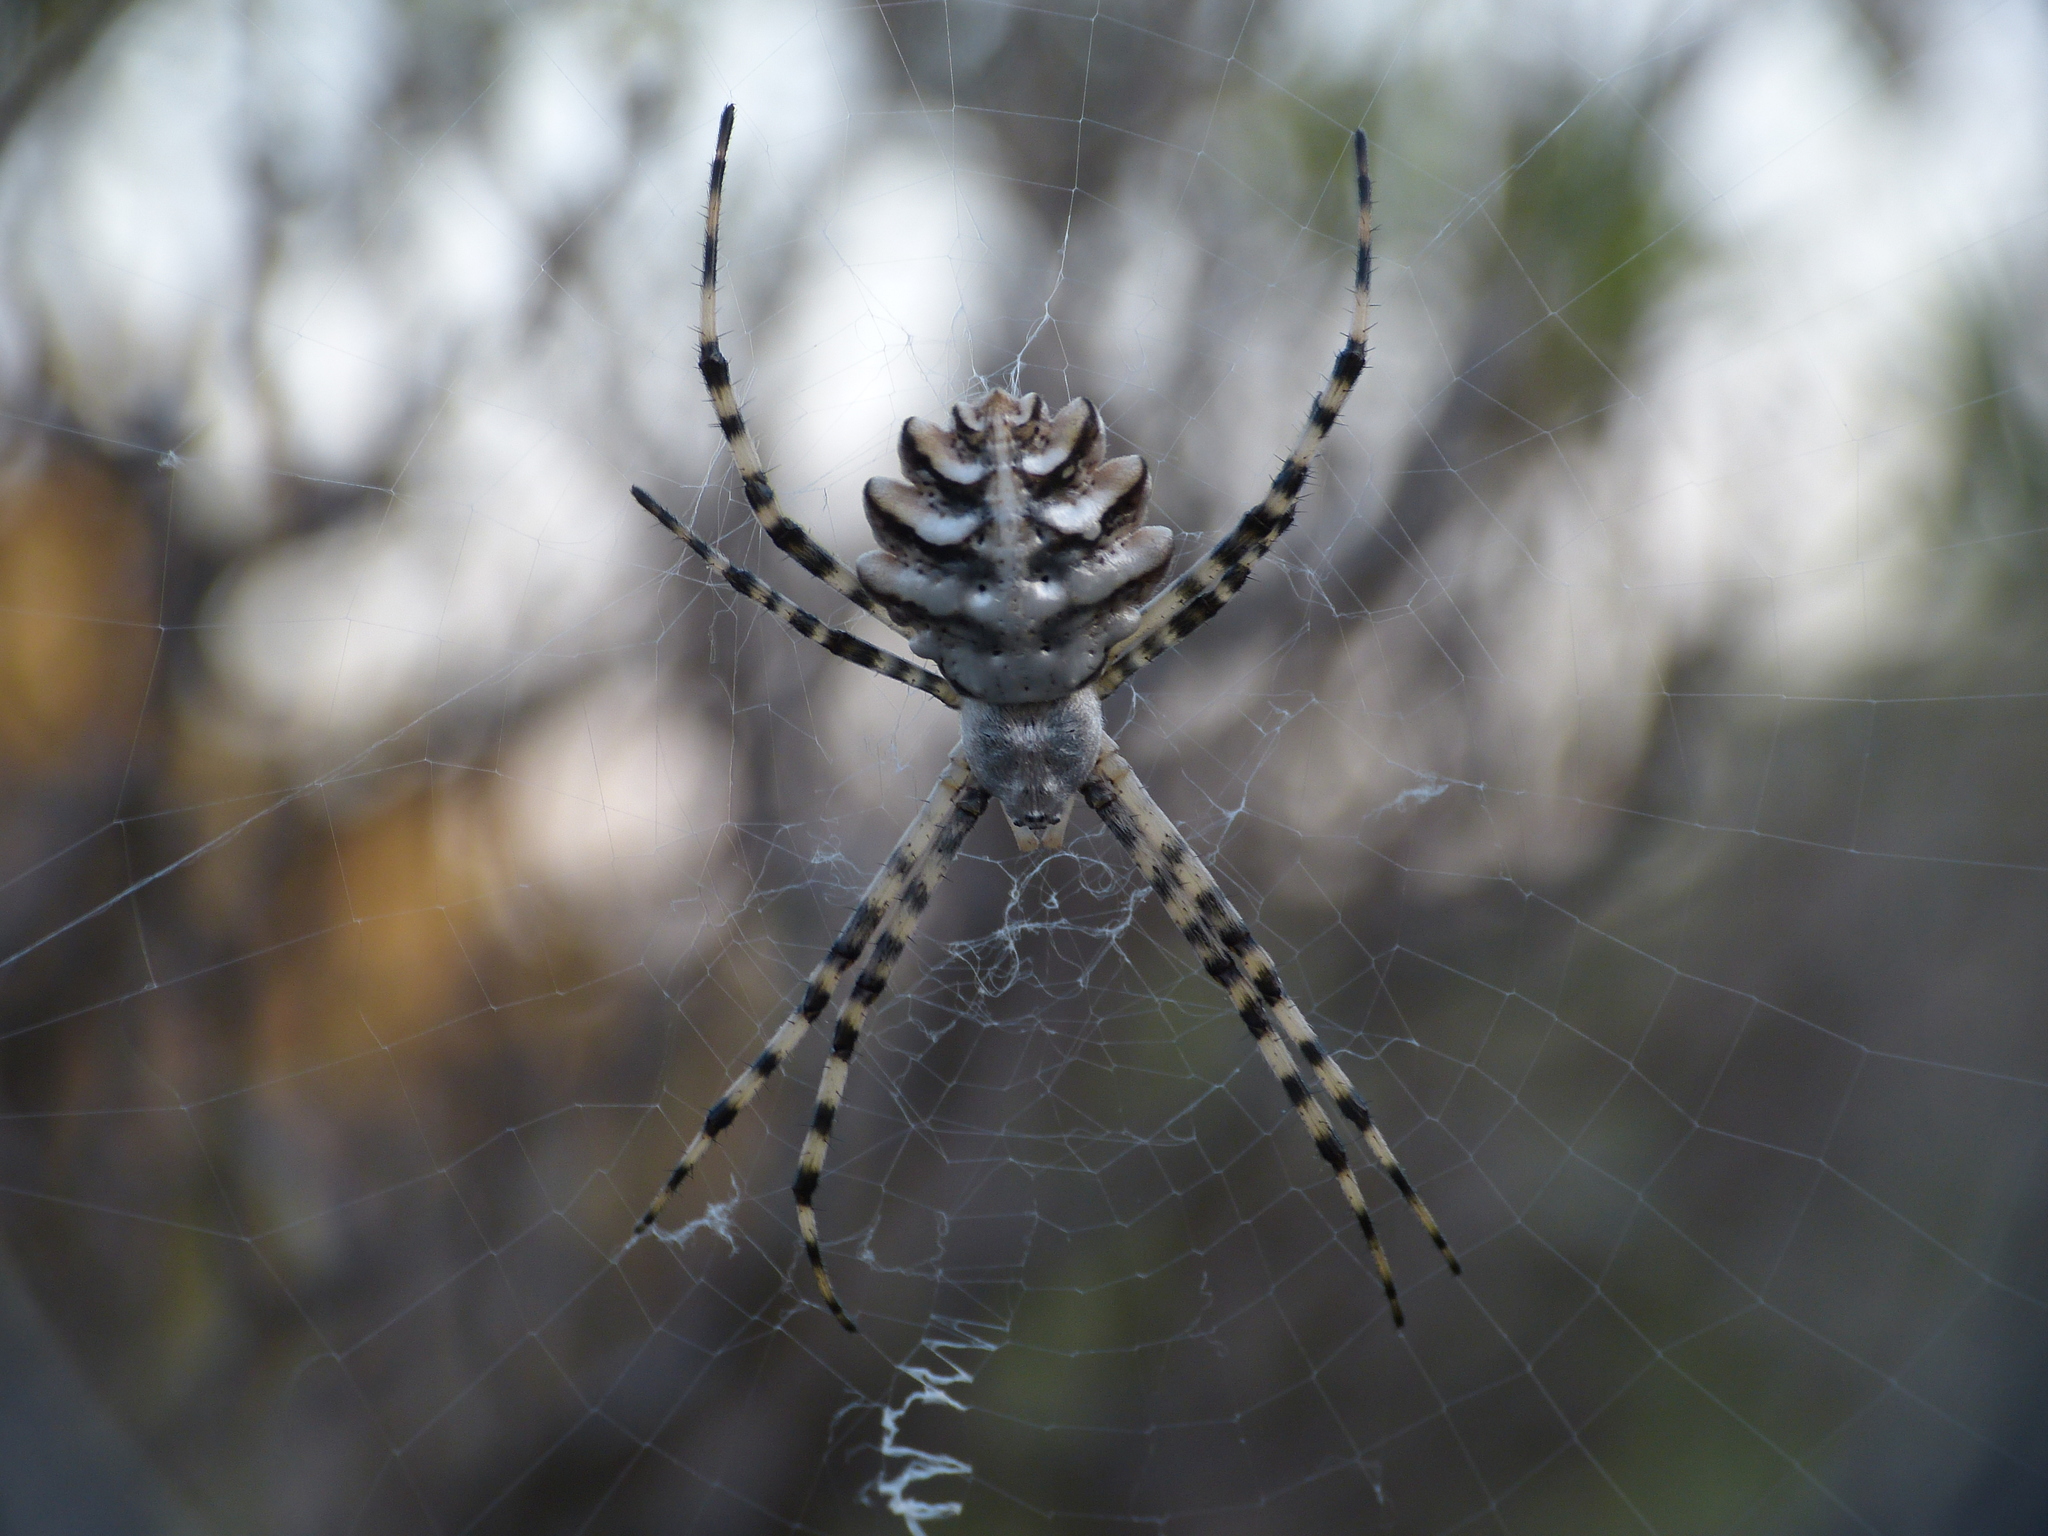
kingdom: Animalia
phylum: Arthropoda
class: Arachnida
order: Araneae
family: Araneidae
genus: Argiope
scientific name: Argiope lobata
